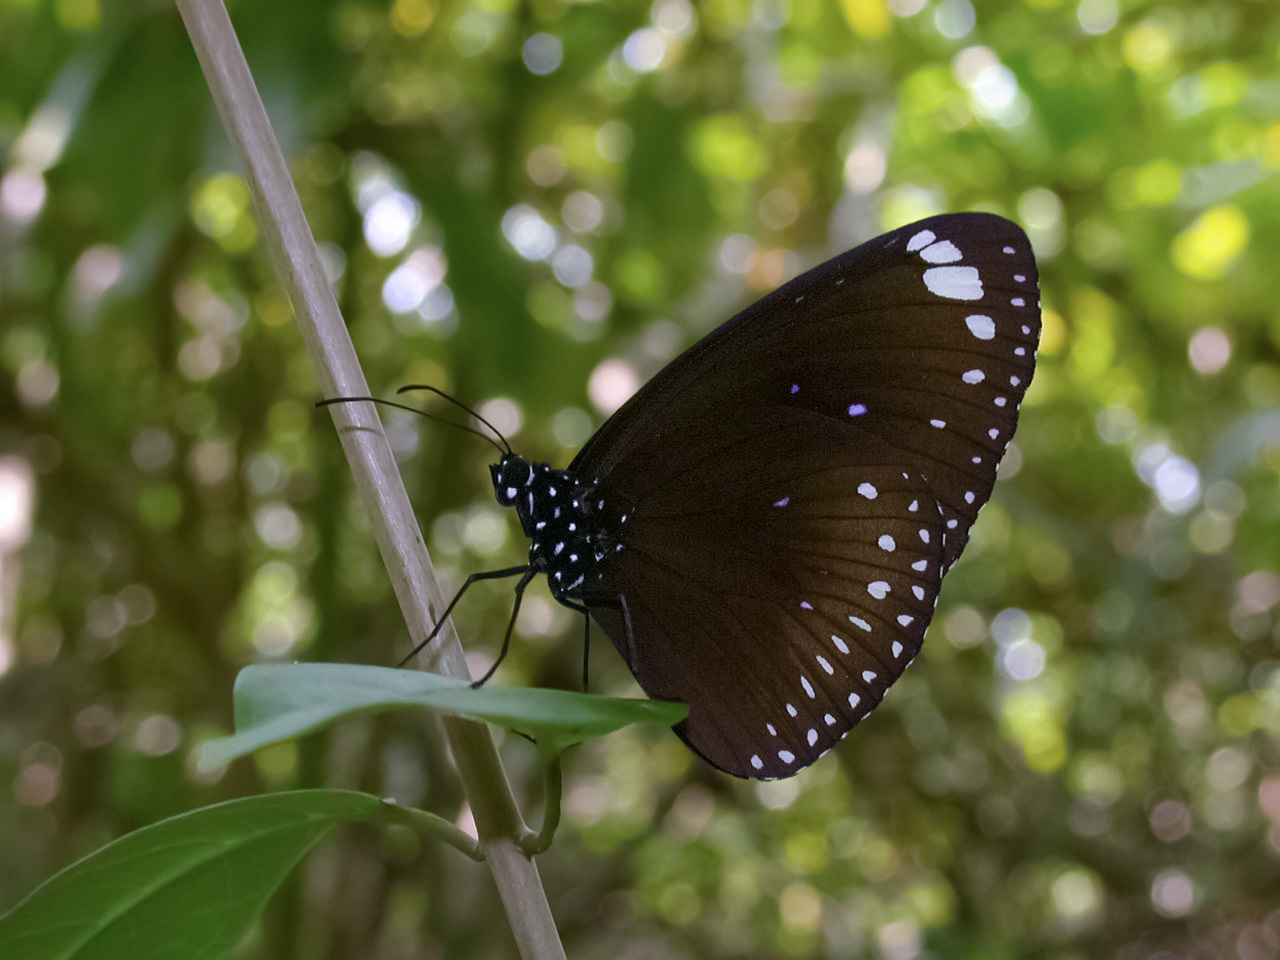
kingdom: Animalia
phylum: Arthropoda
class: Insecta
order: Lepidoptera
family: Nymphalidae
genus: Euploea
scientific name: Euploea midamus
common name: Blue-spotted crow butterfly
